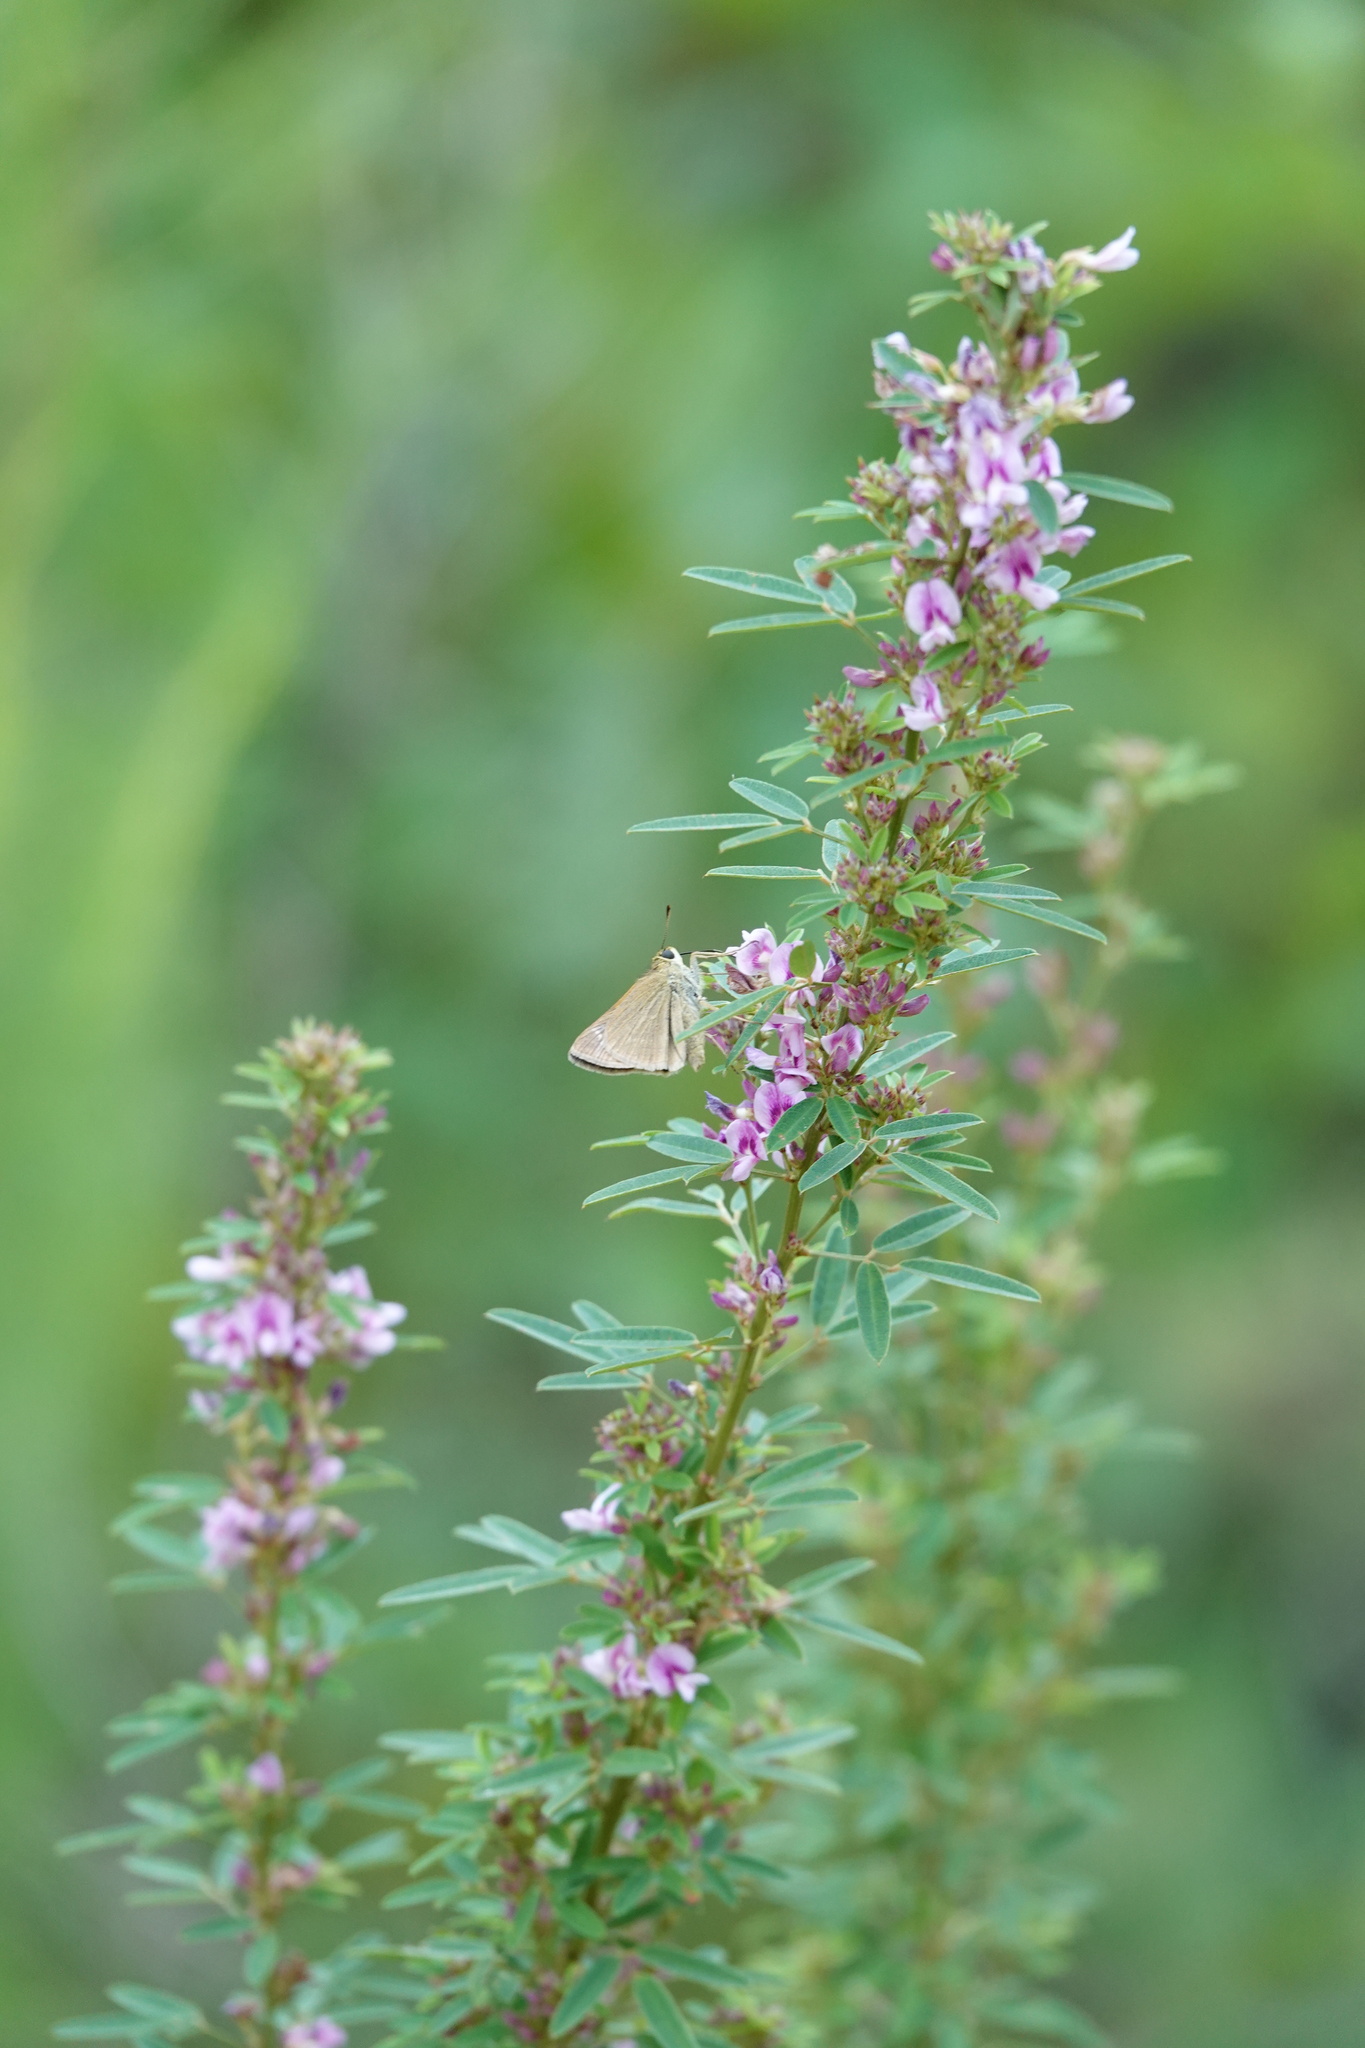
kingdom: Animalia
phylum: Arthropoda
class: Insecta
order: Lepidoptera
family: Hesperiidae
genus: Polites
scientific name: Polites origenes
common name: Crossline skipper
